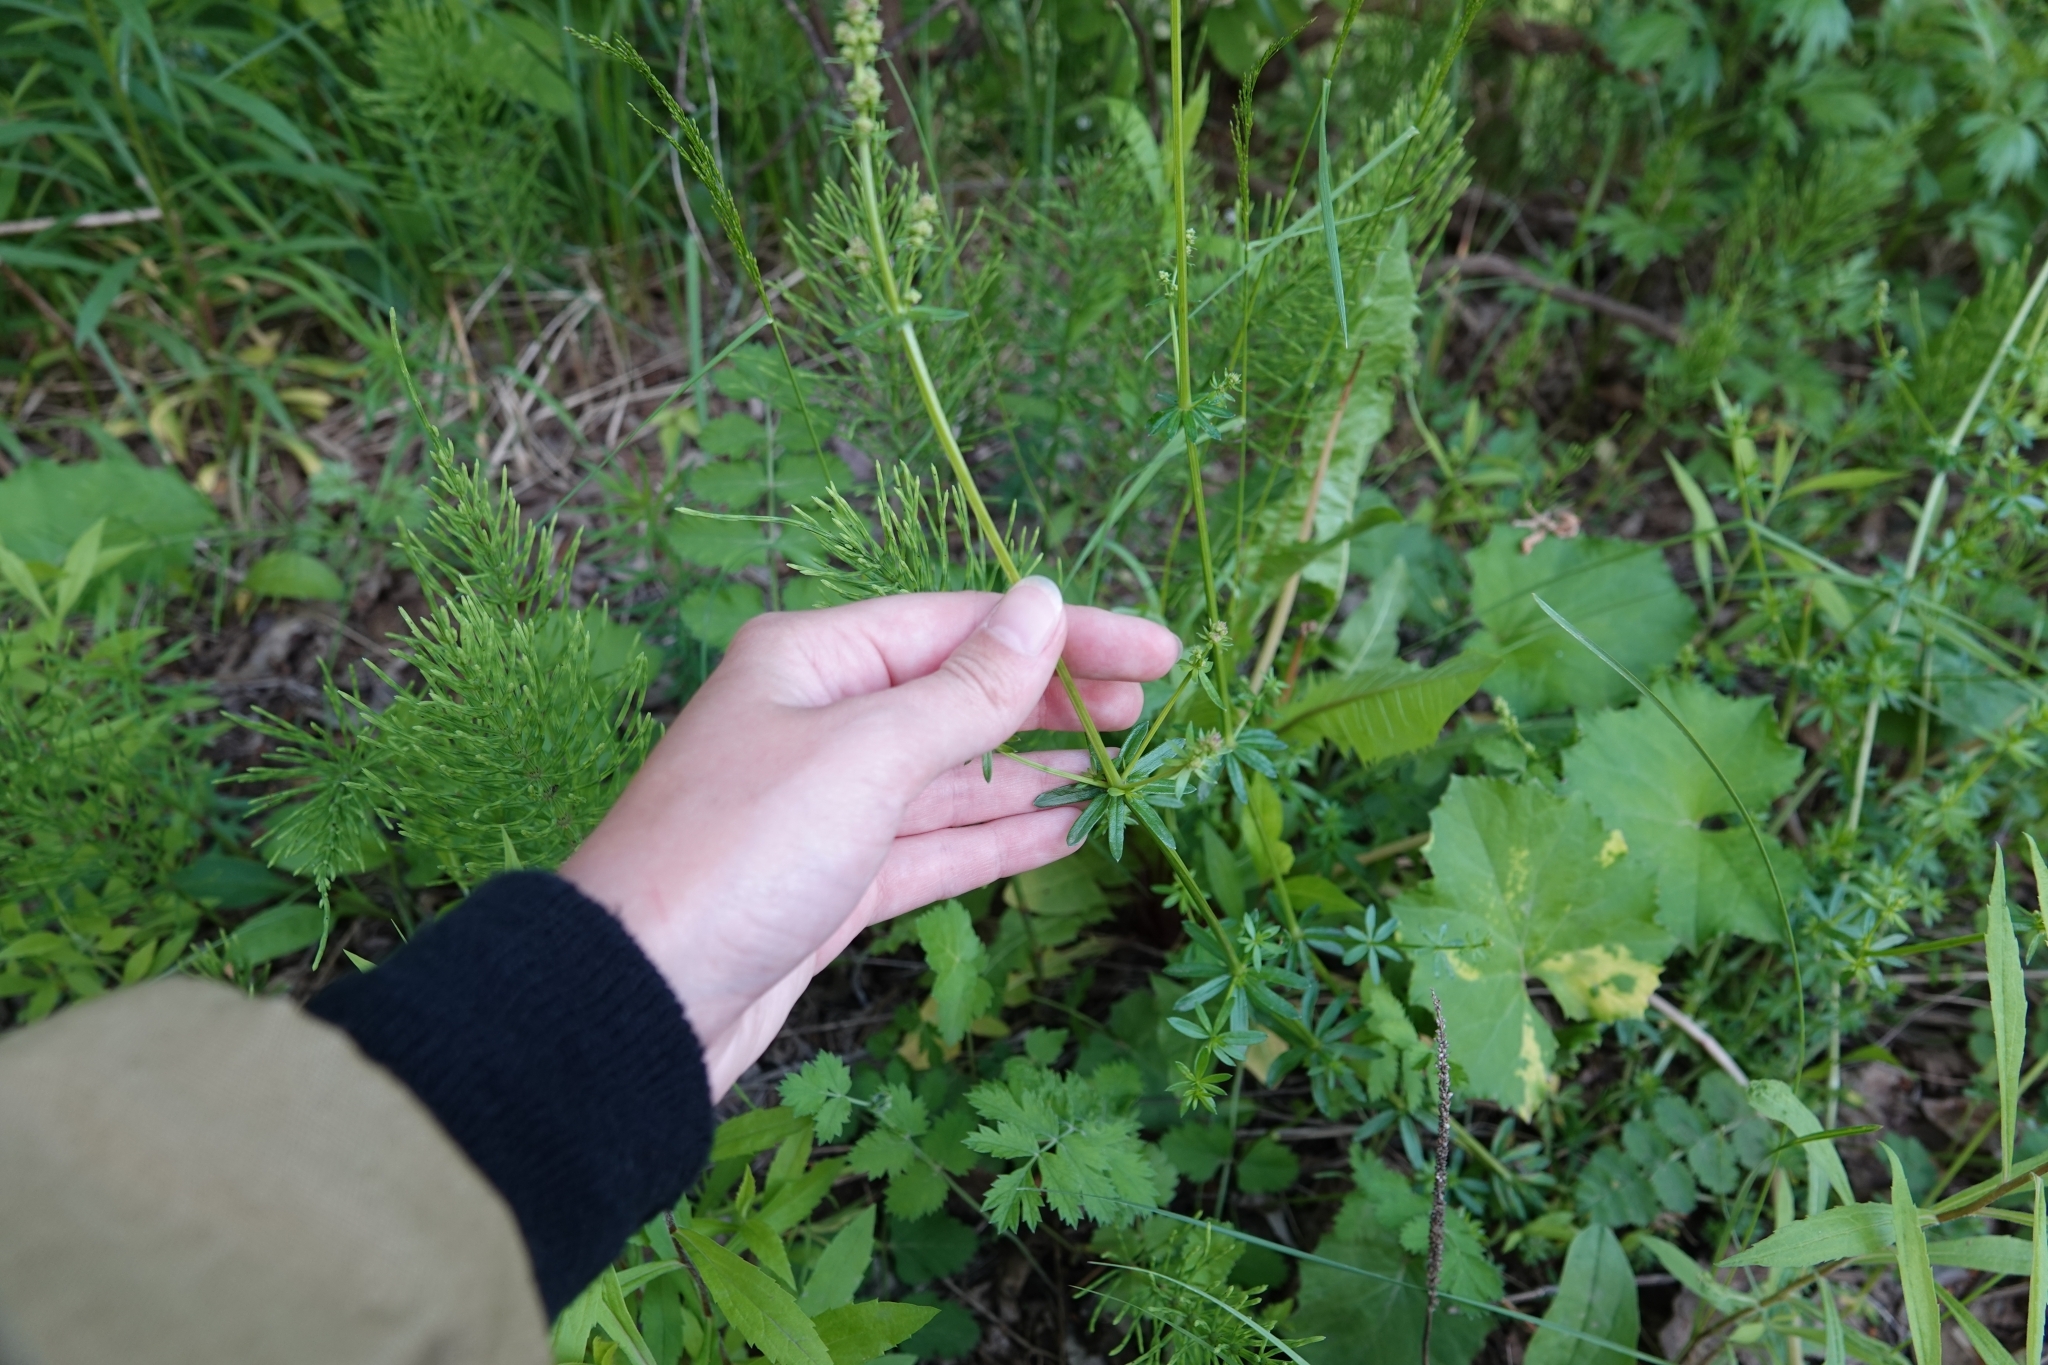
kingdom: Plantae
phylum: Tracheophyta
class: Magnoliopsida
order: Gentianales
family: Rubiaceae
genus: Galium
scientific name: Galium mollugo
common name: Hedge bedstraw
